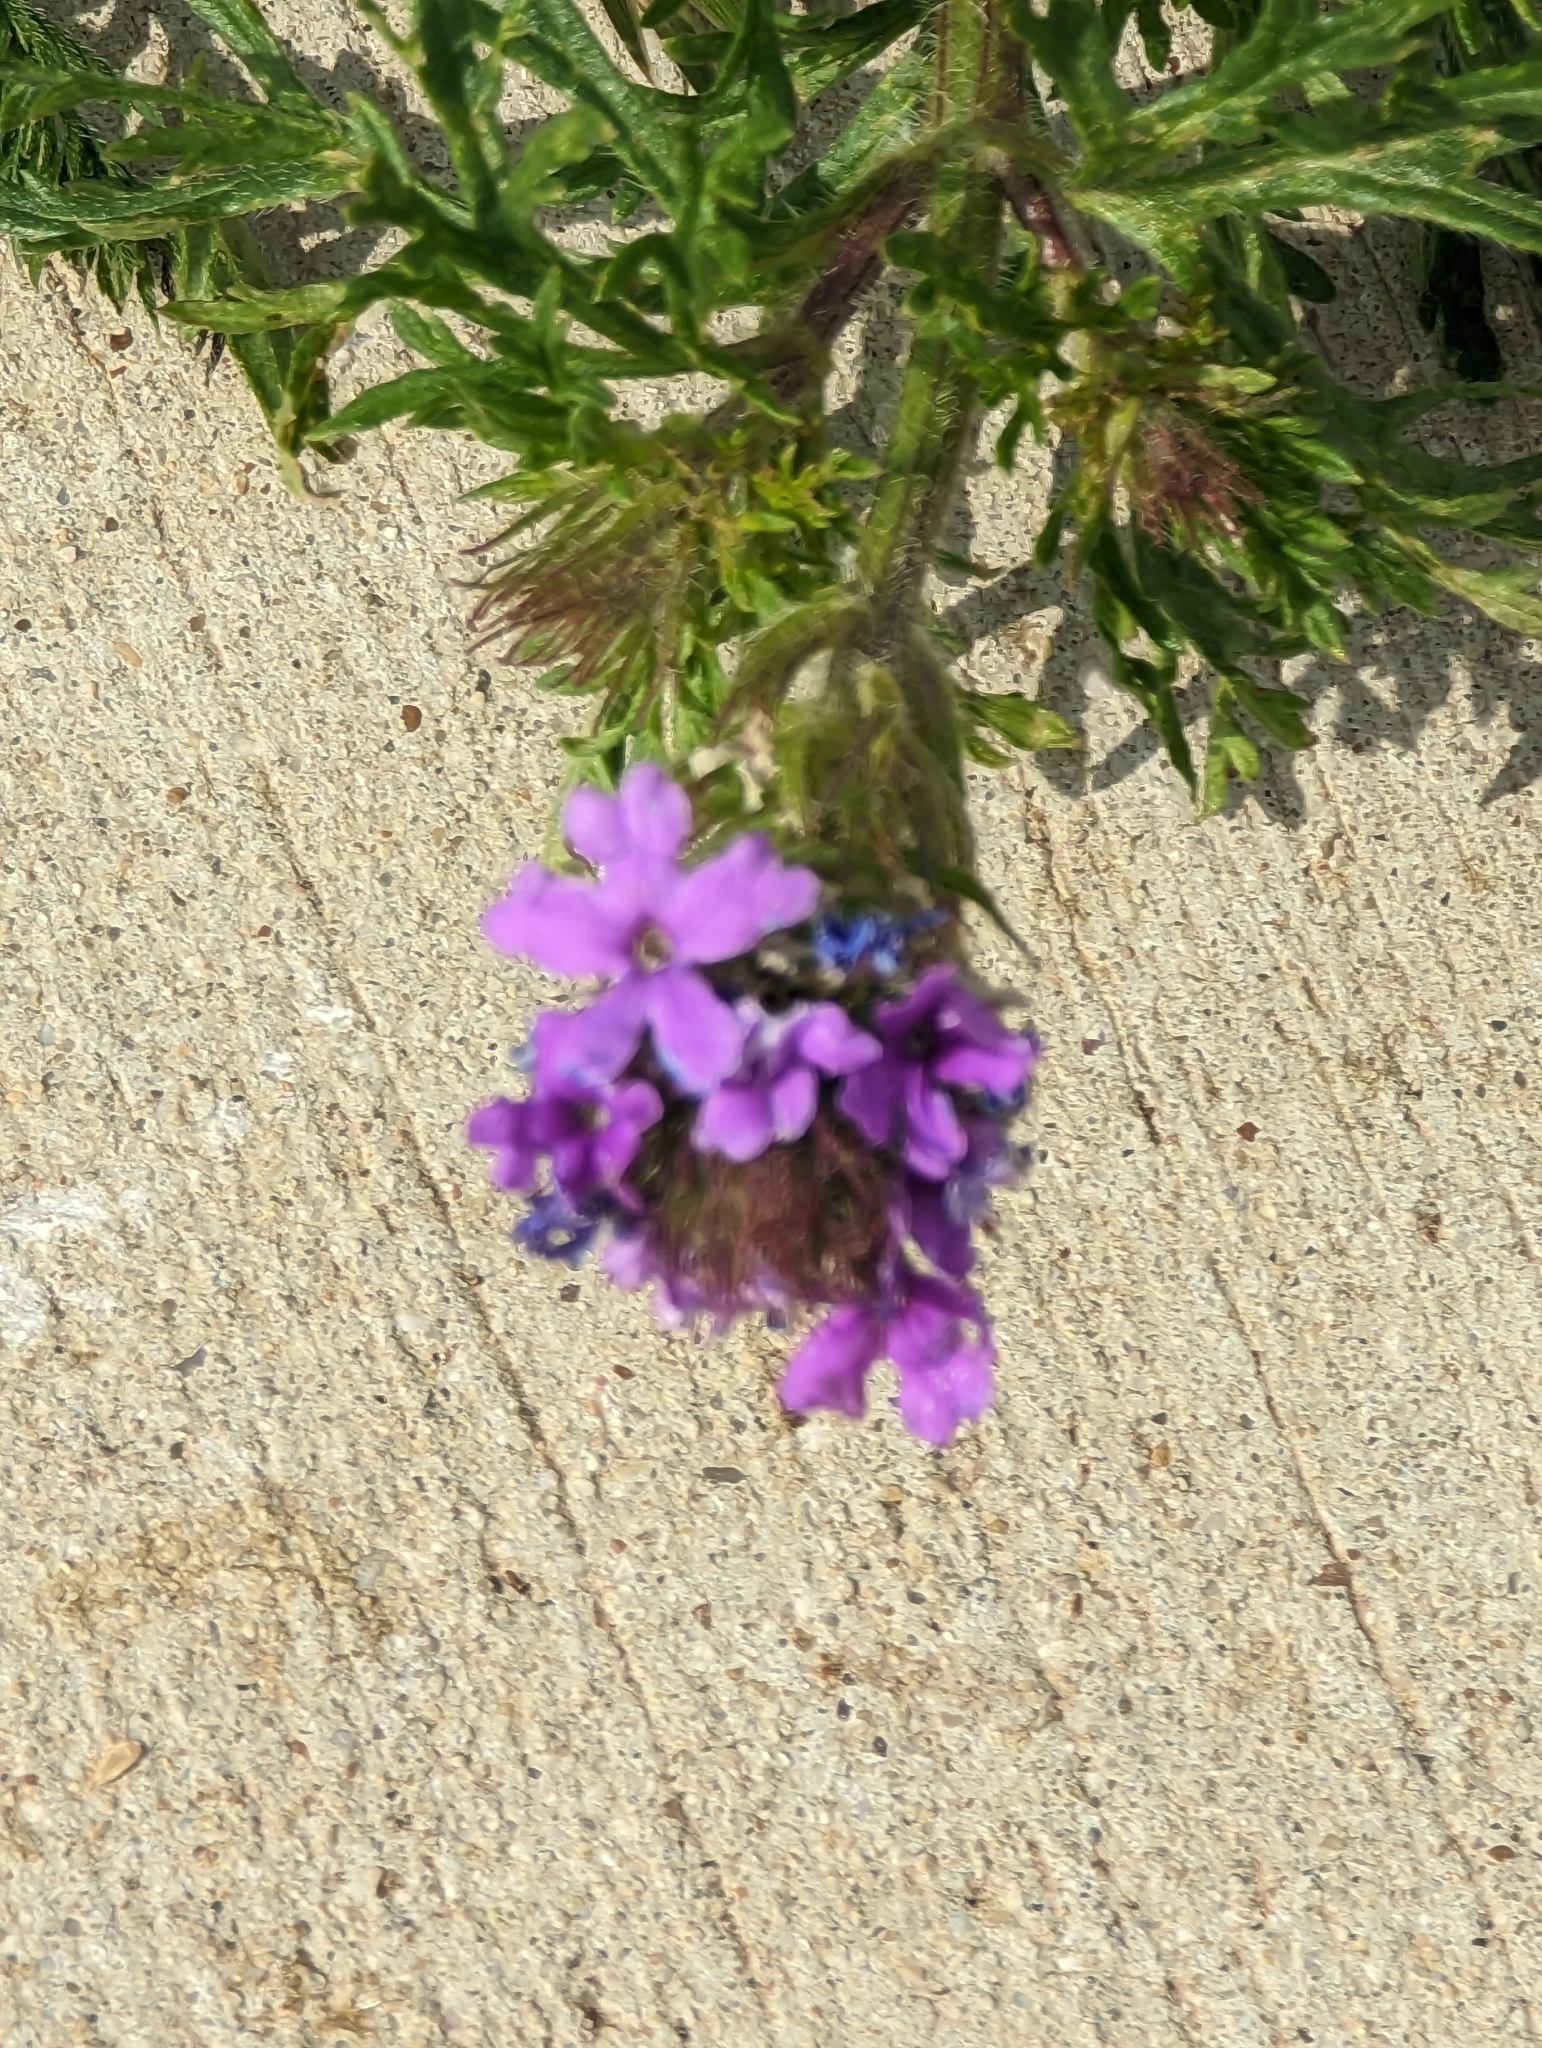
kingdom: Plantae
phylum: Tracheophyta
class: Magnoliopsida
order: Lamiales
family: Verbenaceae
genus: Verbena
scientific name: Verbena bipinnatifida
